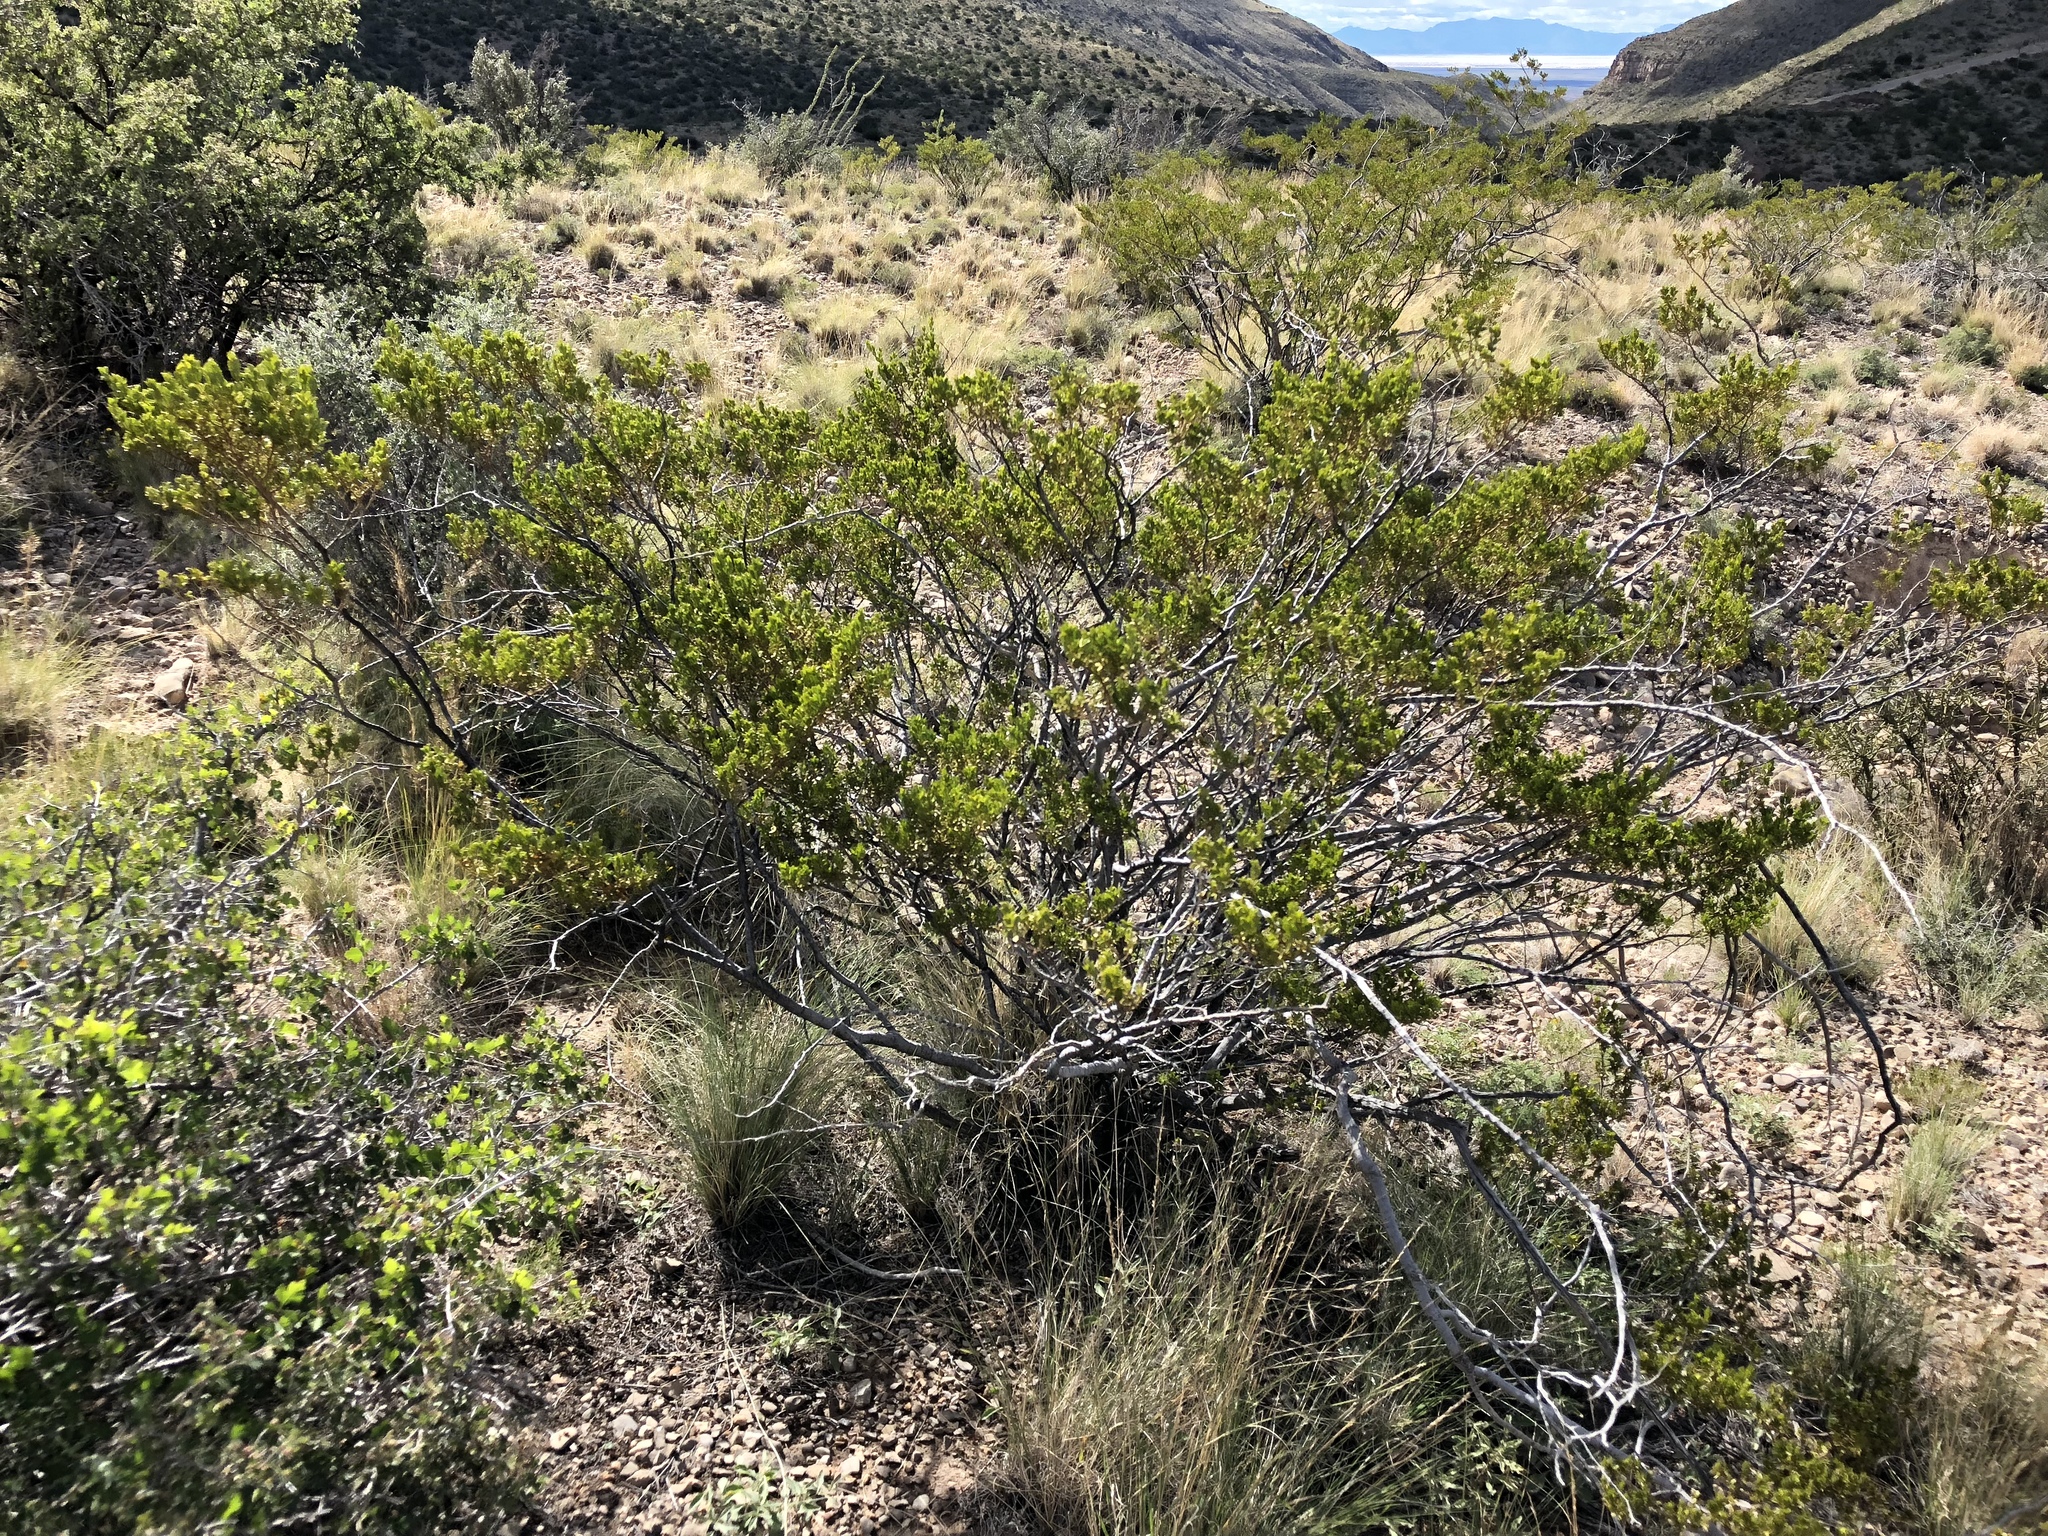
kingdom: Plantae
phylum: Tracheophyta
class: Magnoliopsida
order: Zygophyllales
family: Zygophyllaceae
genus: Larrea
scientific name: Larrea tridentata
